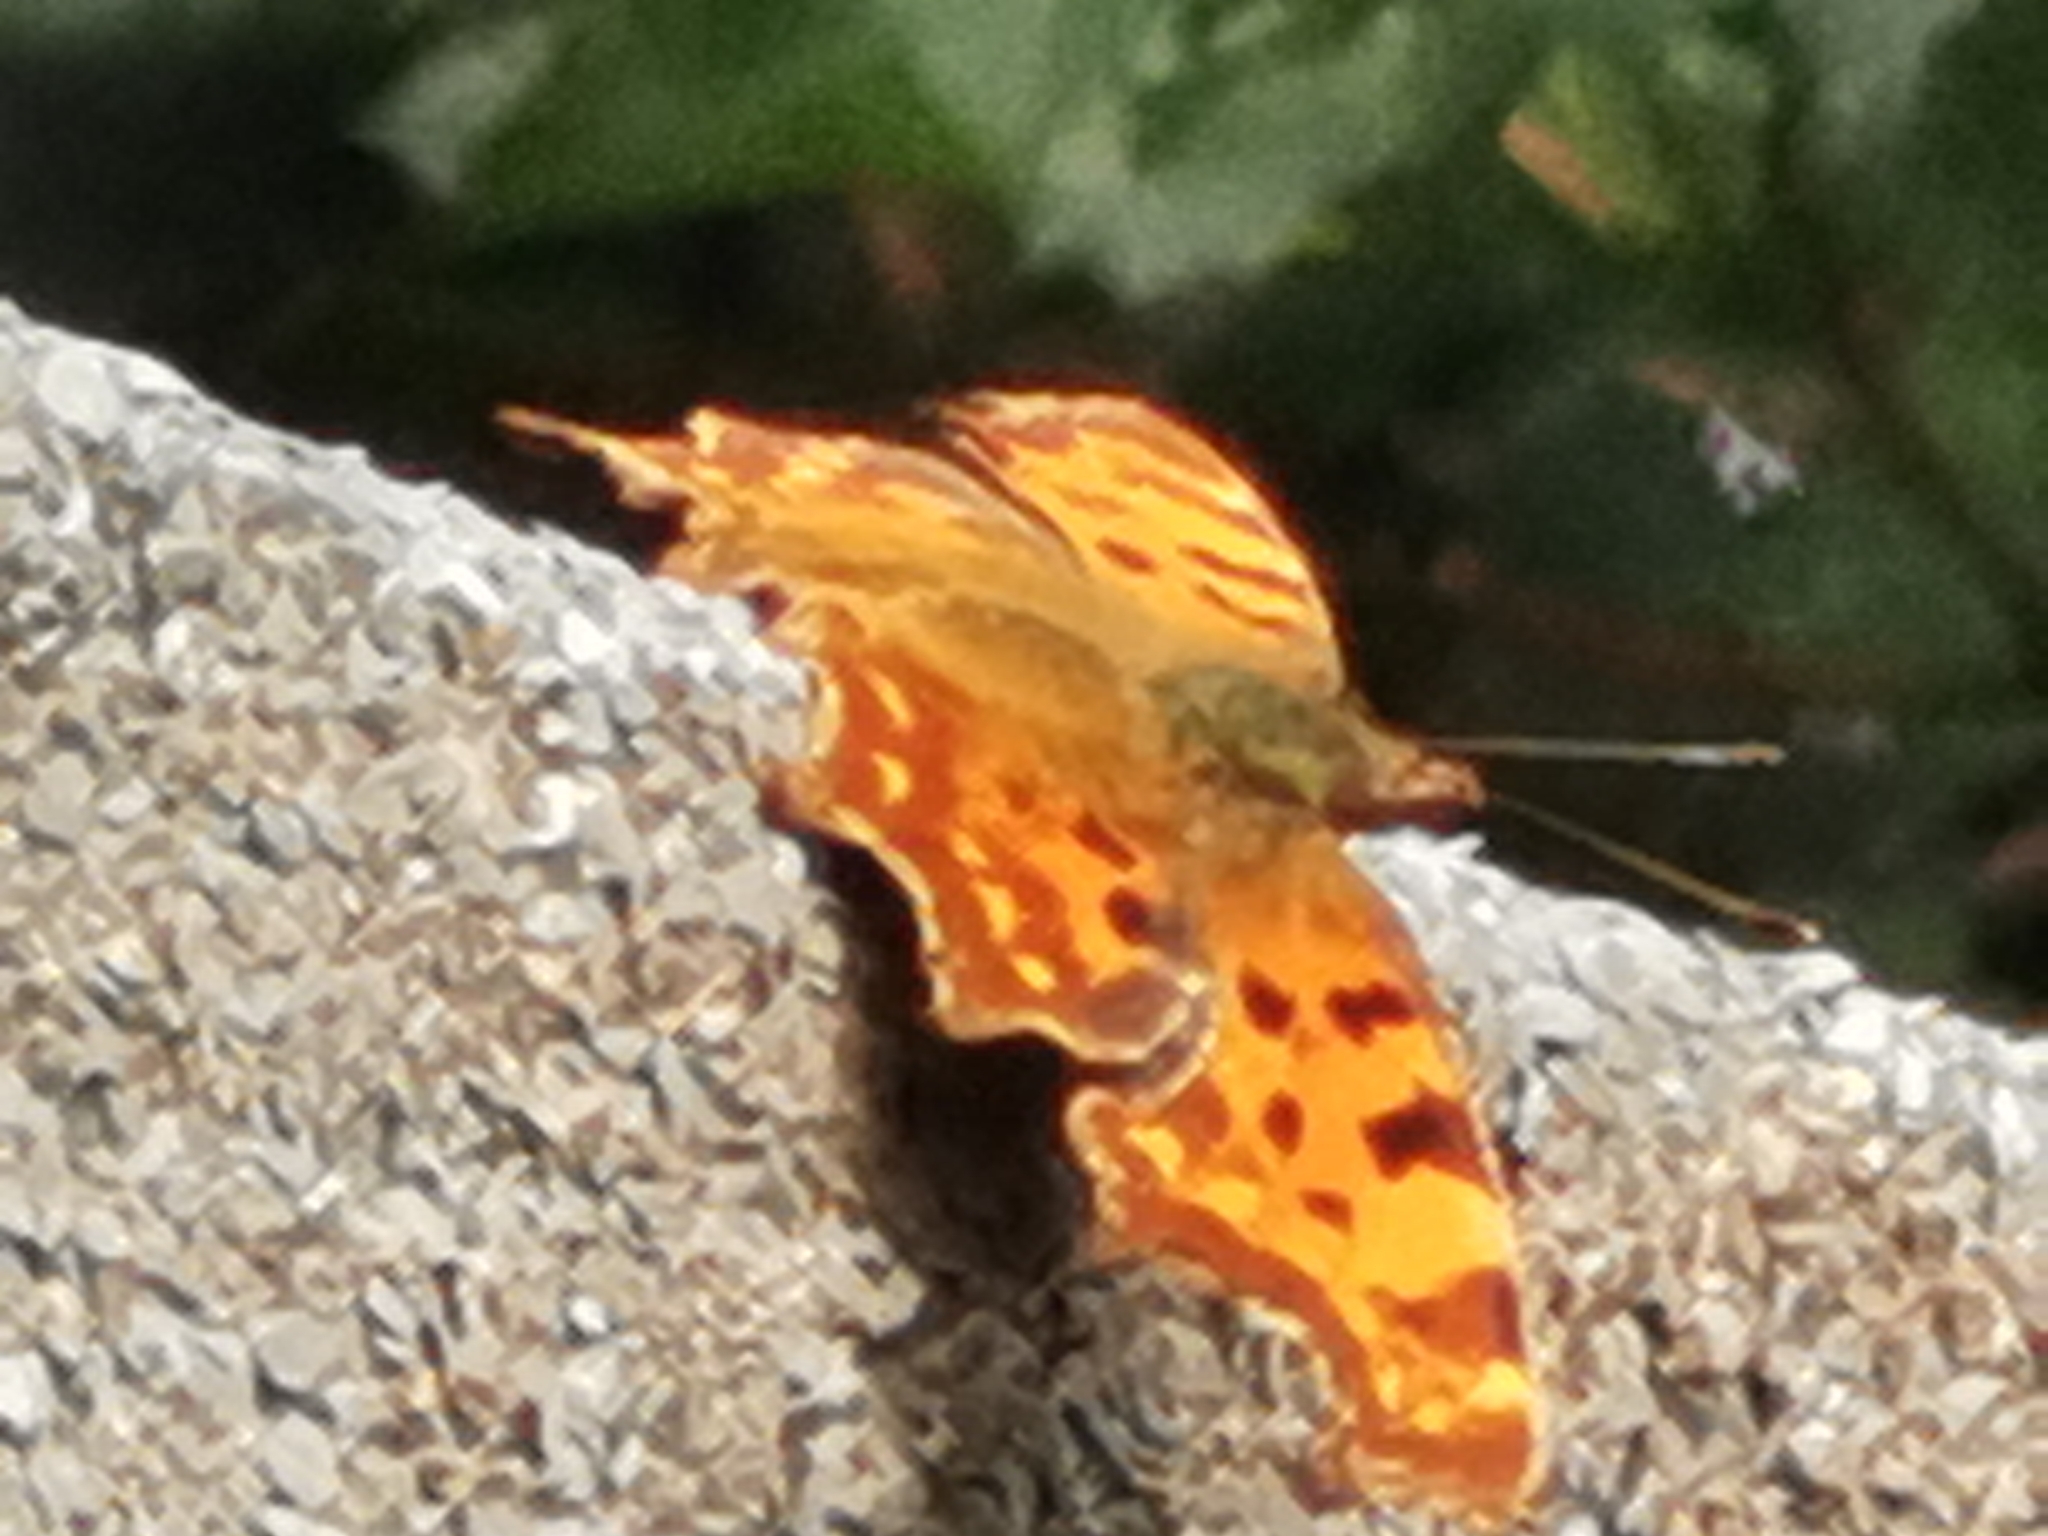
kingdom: Animalia
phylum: Arthropoda
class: Insecta
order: Lepidoptera
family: Nymphalidae
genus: Polygonia
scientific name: Polygonia c-album
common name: Comma
